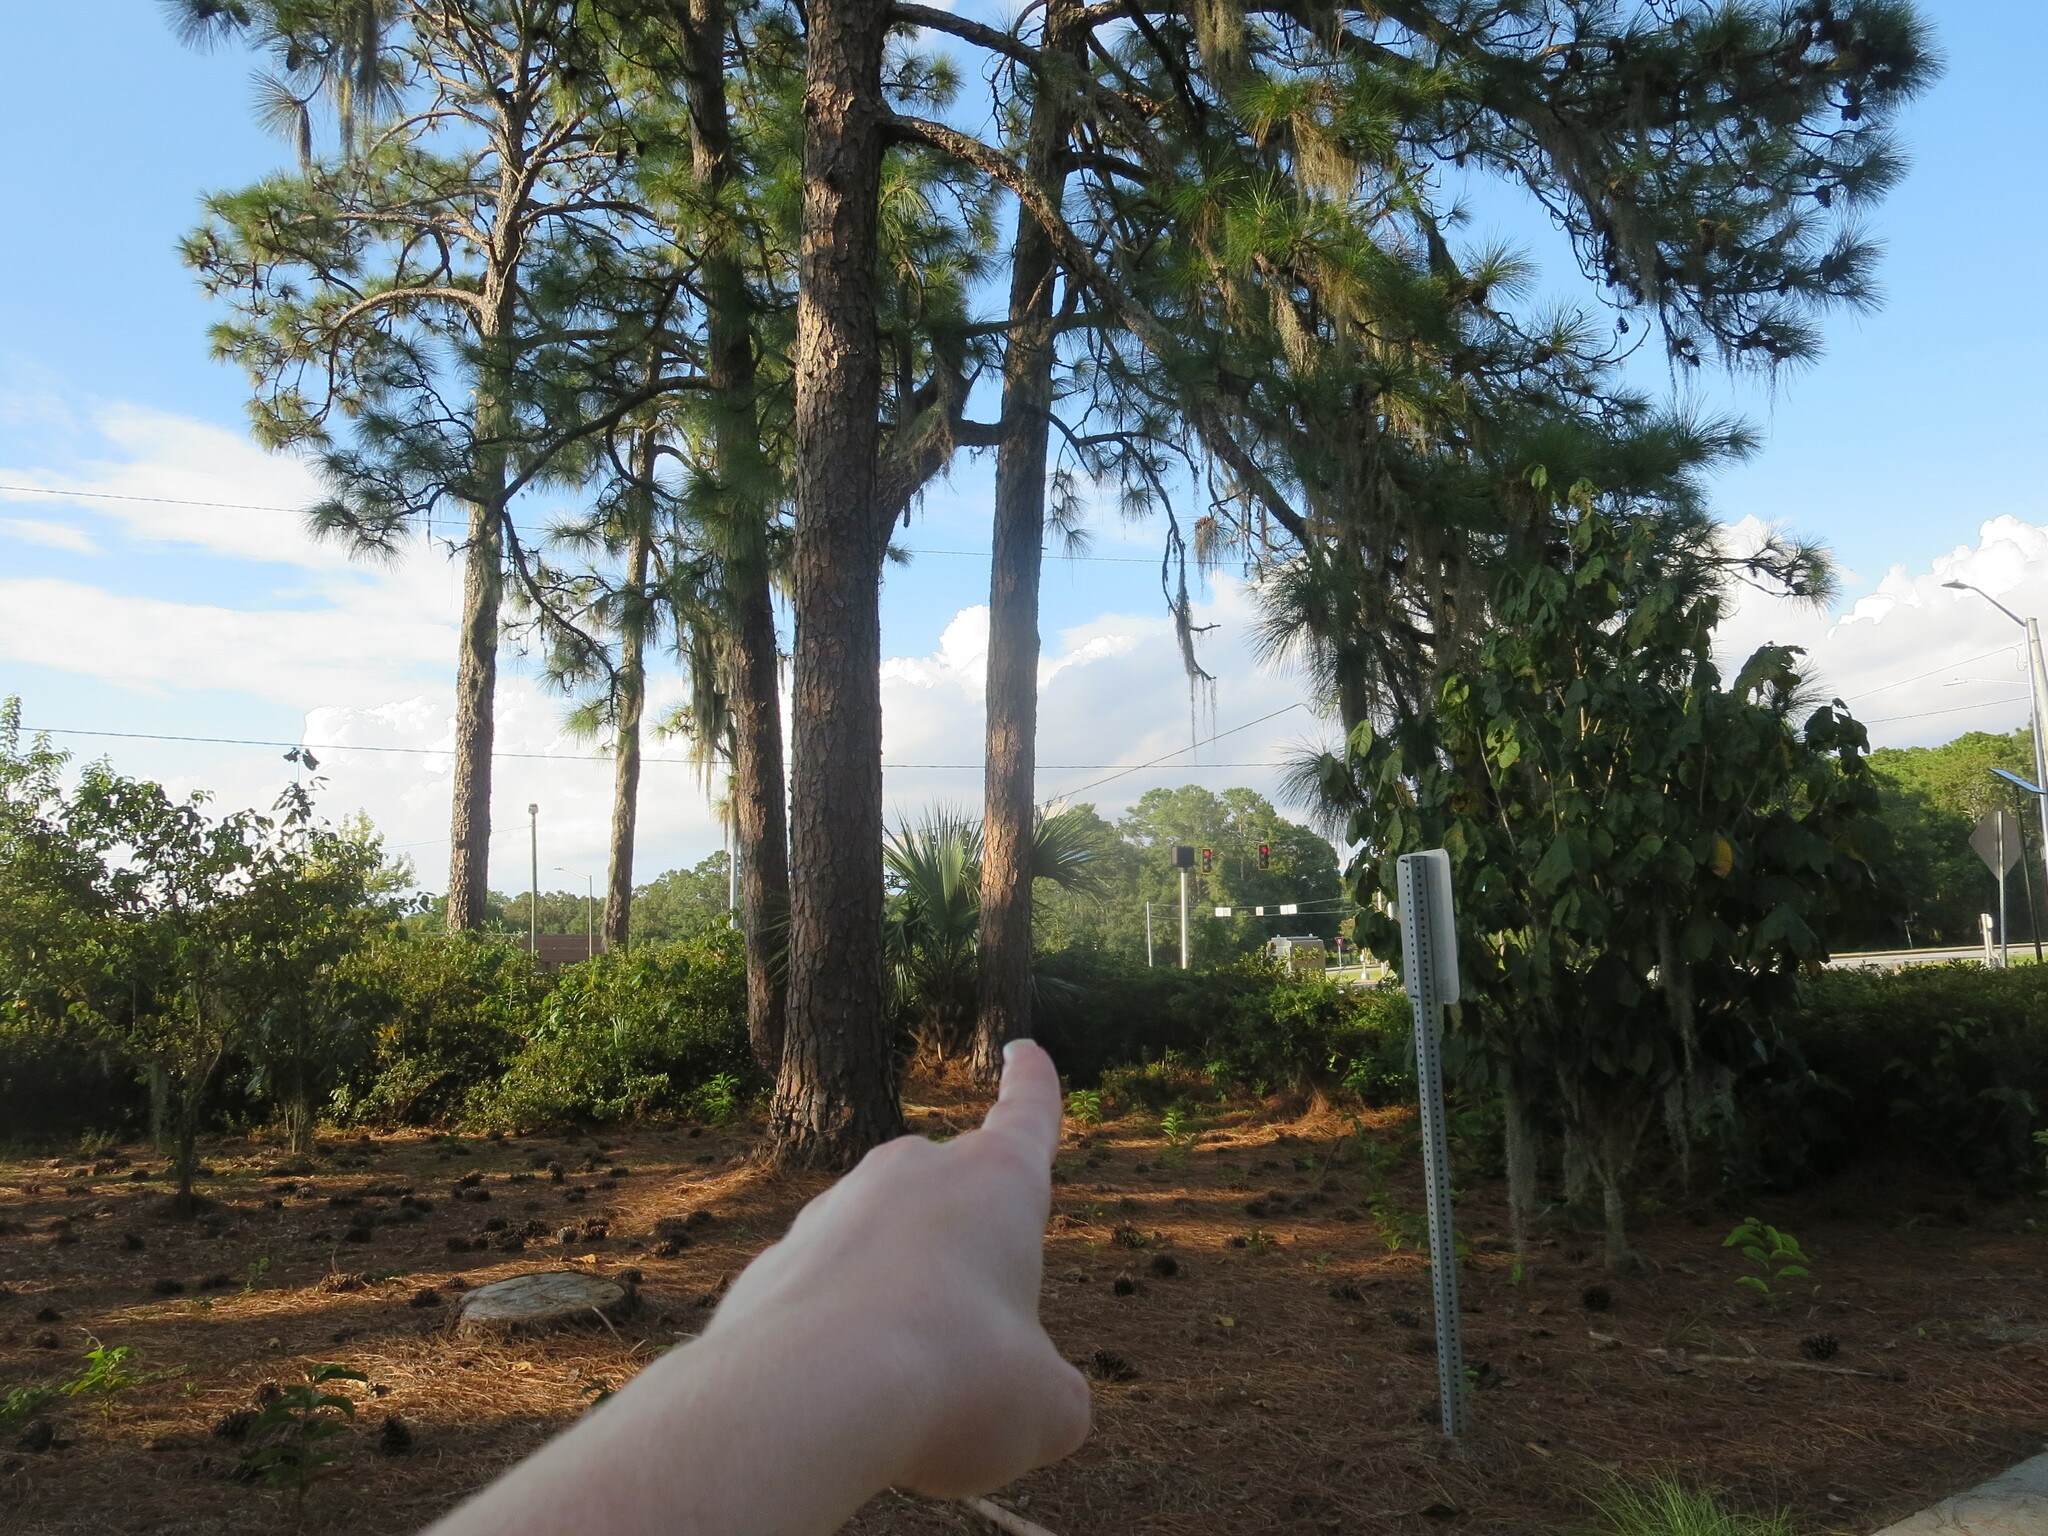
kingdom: Plantae
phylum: Tracheophyta
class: Pinopsida
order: Pinales
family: Pinaceae
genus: Pinus
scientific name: Pinus palustris
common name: Longleaf pine
